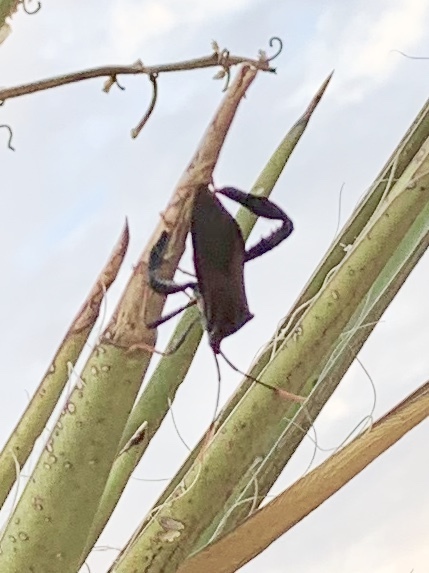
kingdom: Animalia
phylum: Arthropoda
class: Insecta
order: Hemiptera
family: Coreidae
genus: Acanthocephala
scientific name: Acanthocephala thomasi
